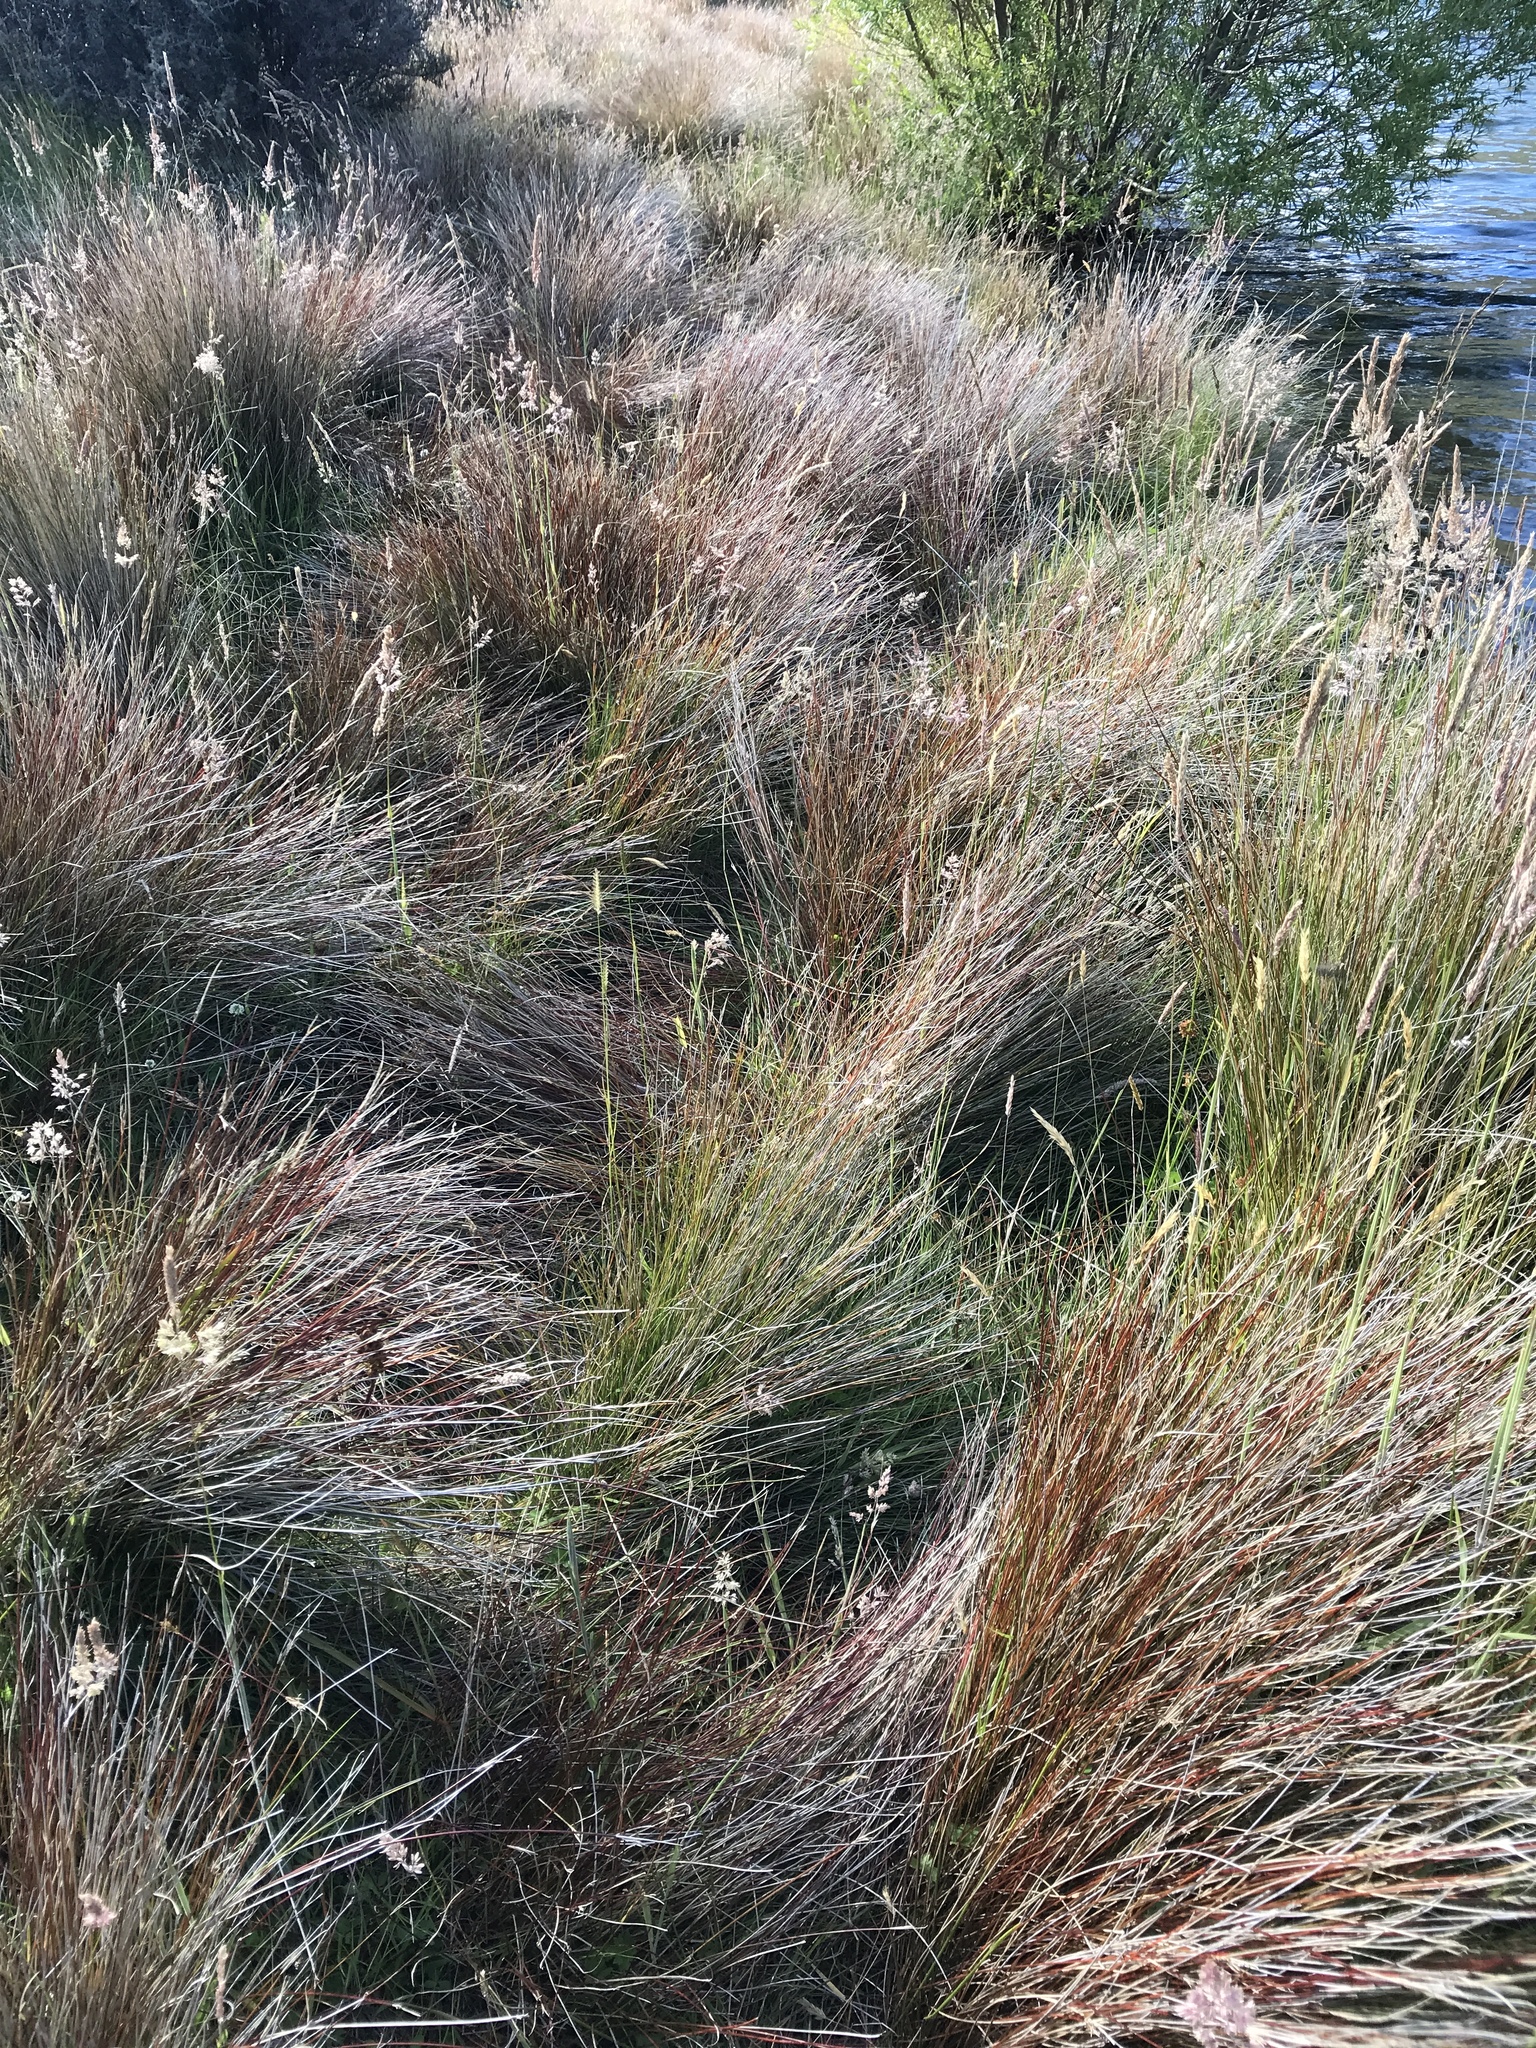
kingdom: Plantae
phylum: Tracheophyta
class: Liliopsida
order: Poales
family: Cyperaceae
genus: Schoenus
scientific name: Schoenus pauciflorus
